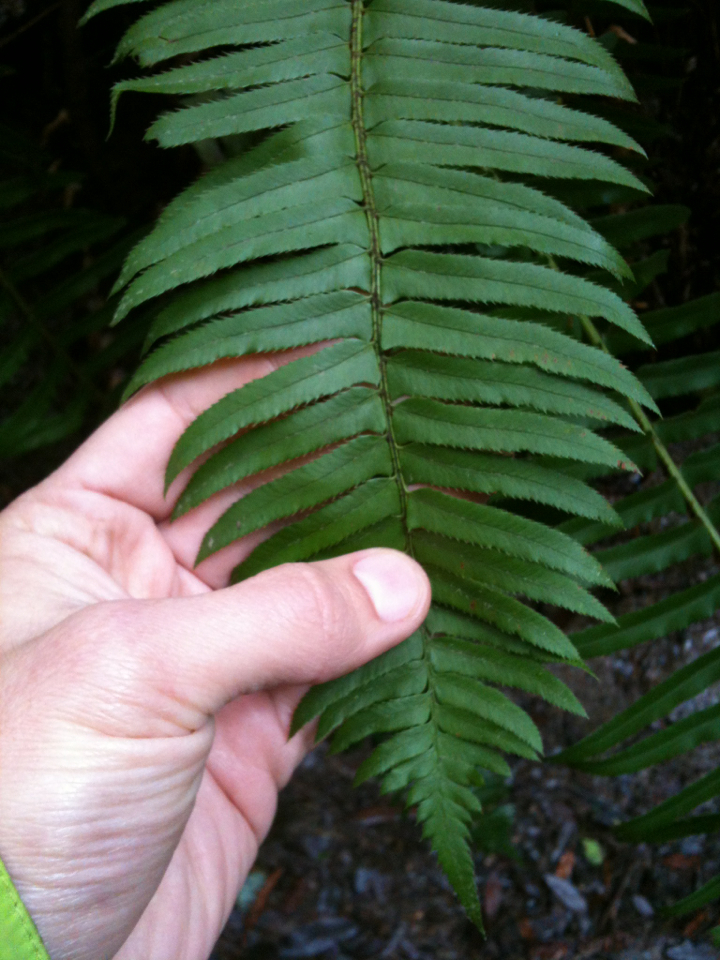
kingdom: Plantae
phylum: Tracheophyta
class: Polypodiopsida
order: Polypodiales
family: Dryopteridaceae
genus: Polystichum
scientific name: Polystichum munitum
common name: Western sword-fern
